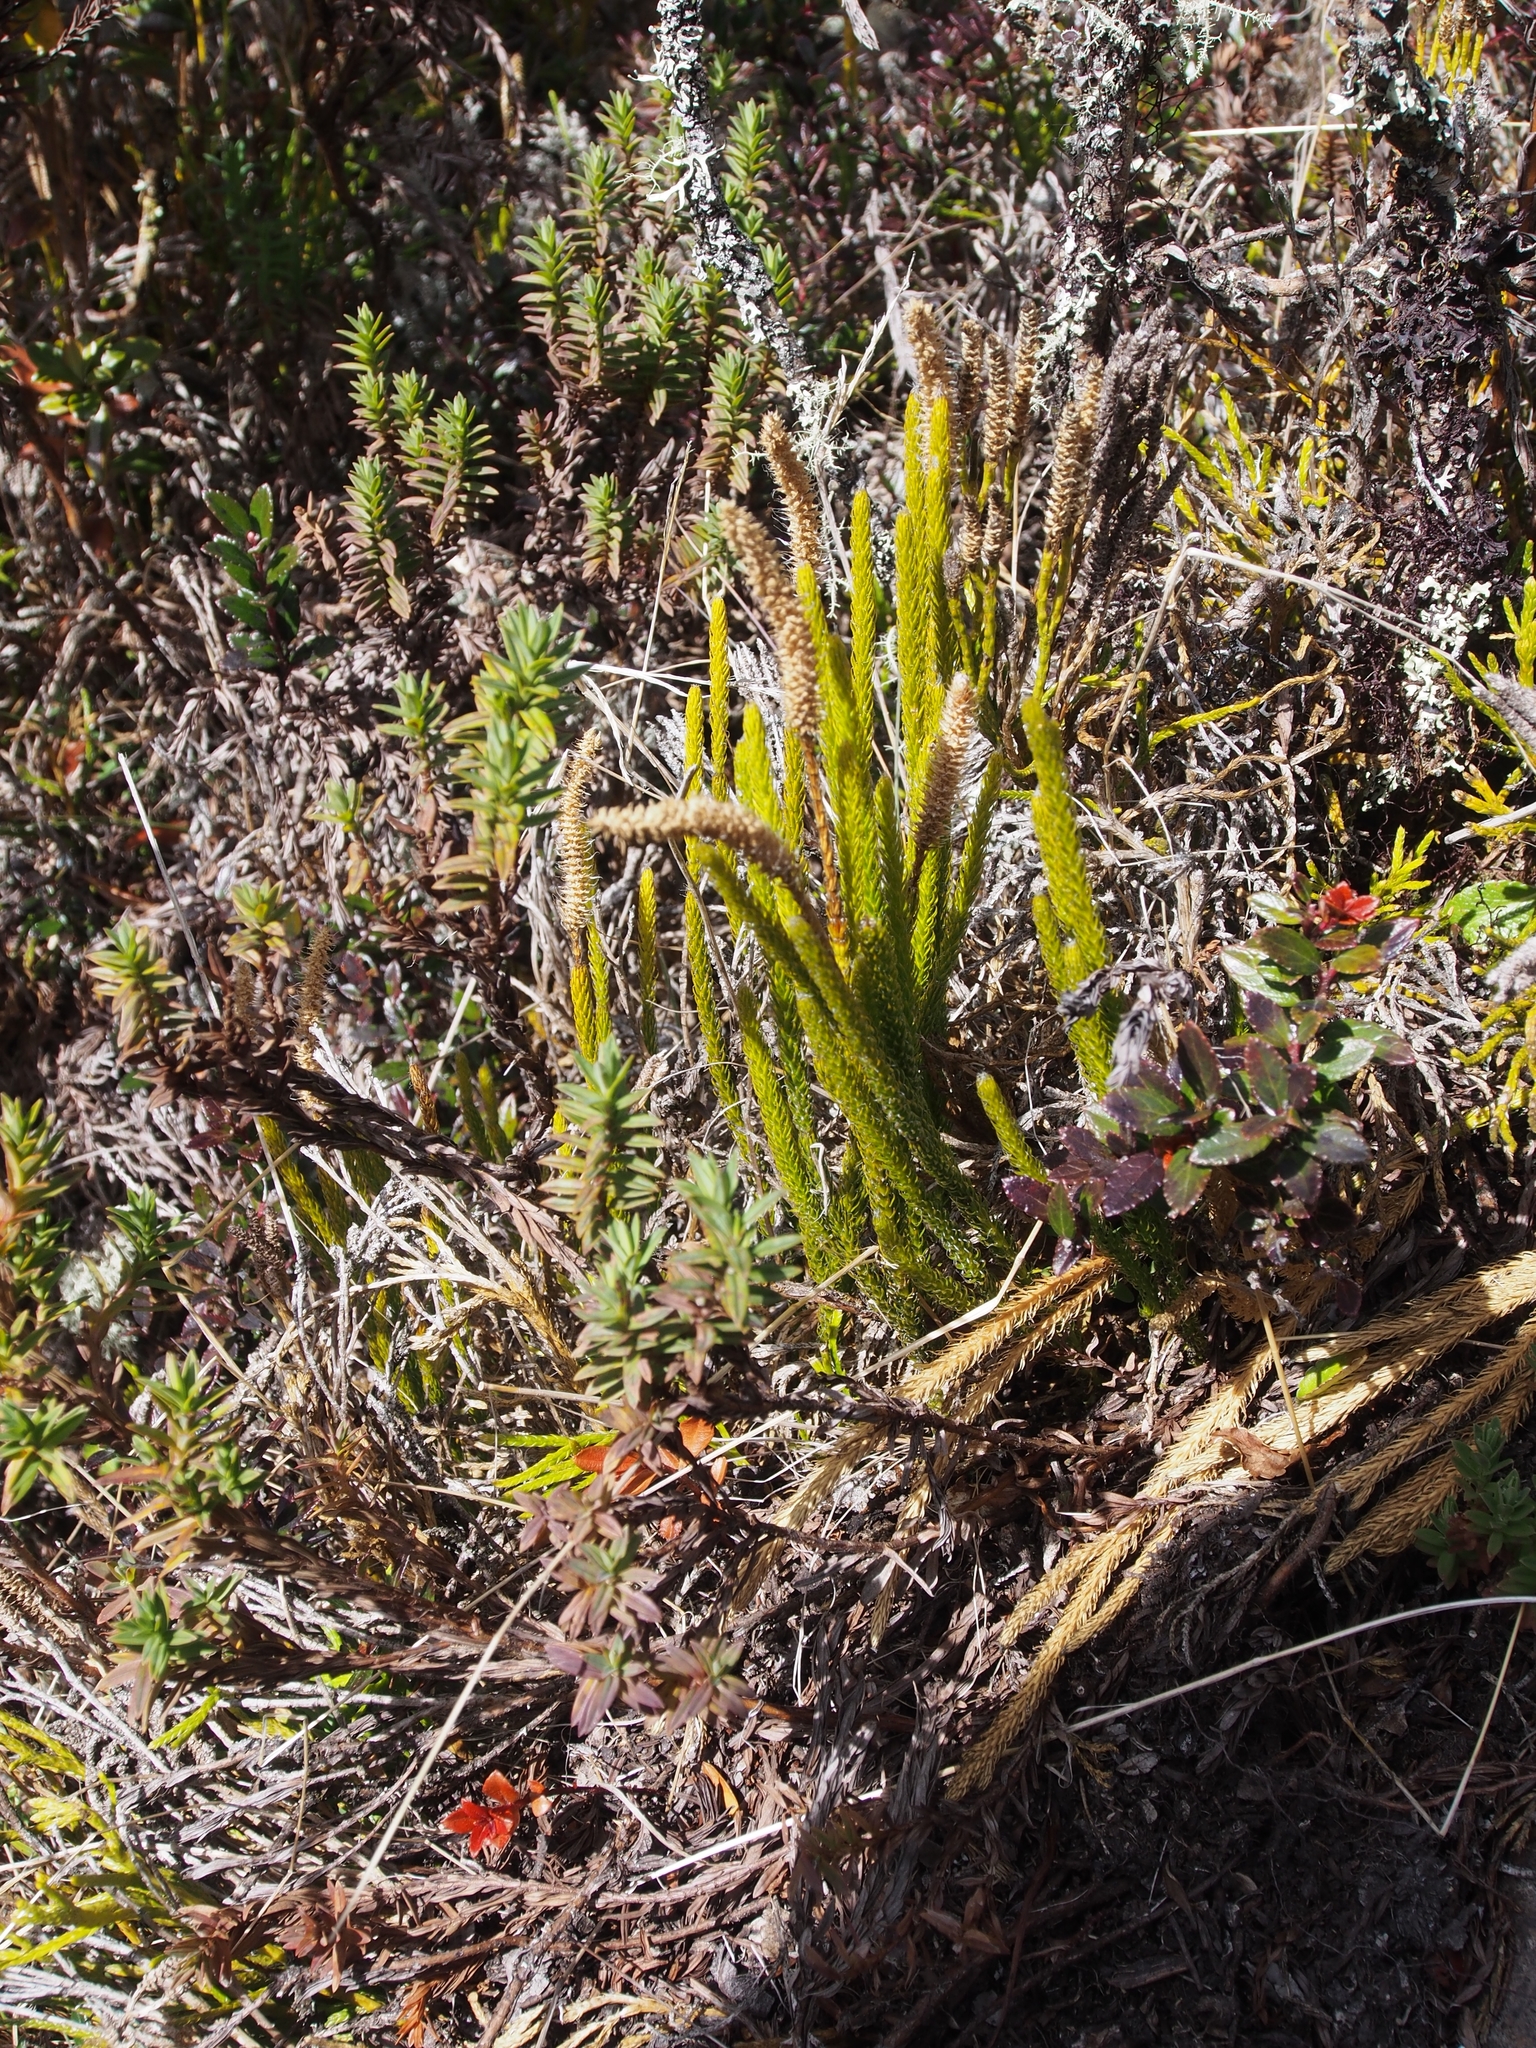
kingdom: Plantae
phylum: Tracheophyta
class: Lycopodiopsida
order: Lycopodiales
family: Lycopodiaceae
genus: Lycopodium
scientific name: Lycopodium clavatum
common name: Stag's-horn clubmoss
